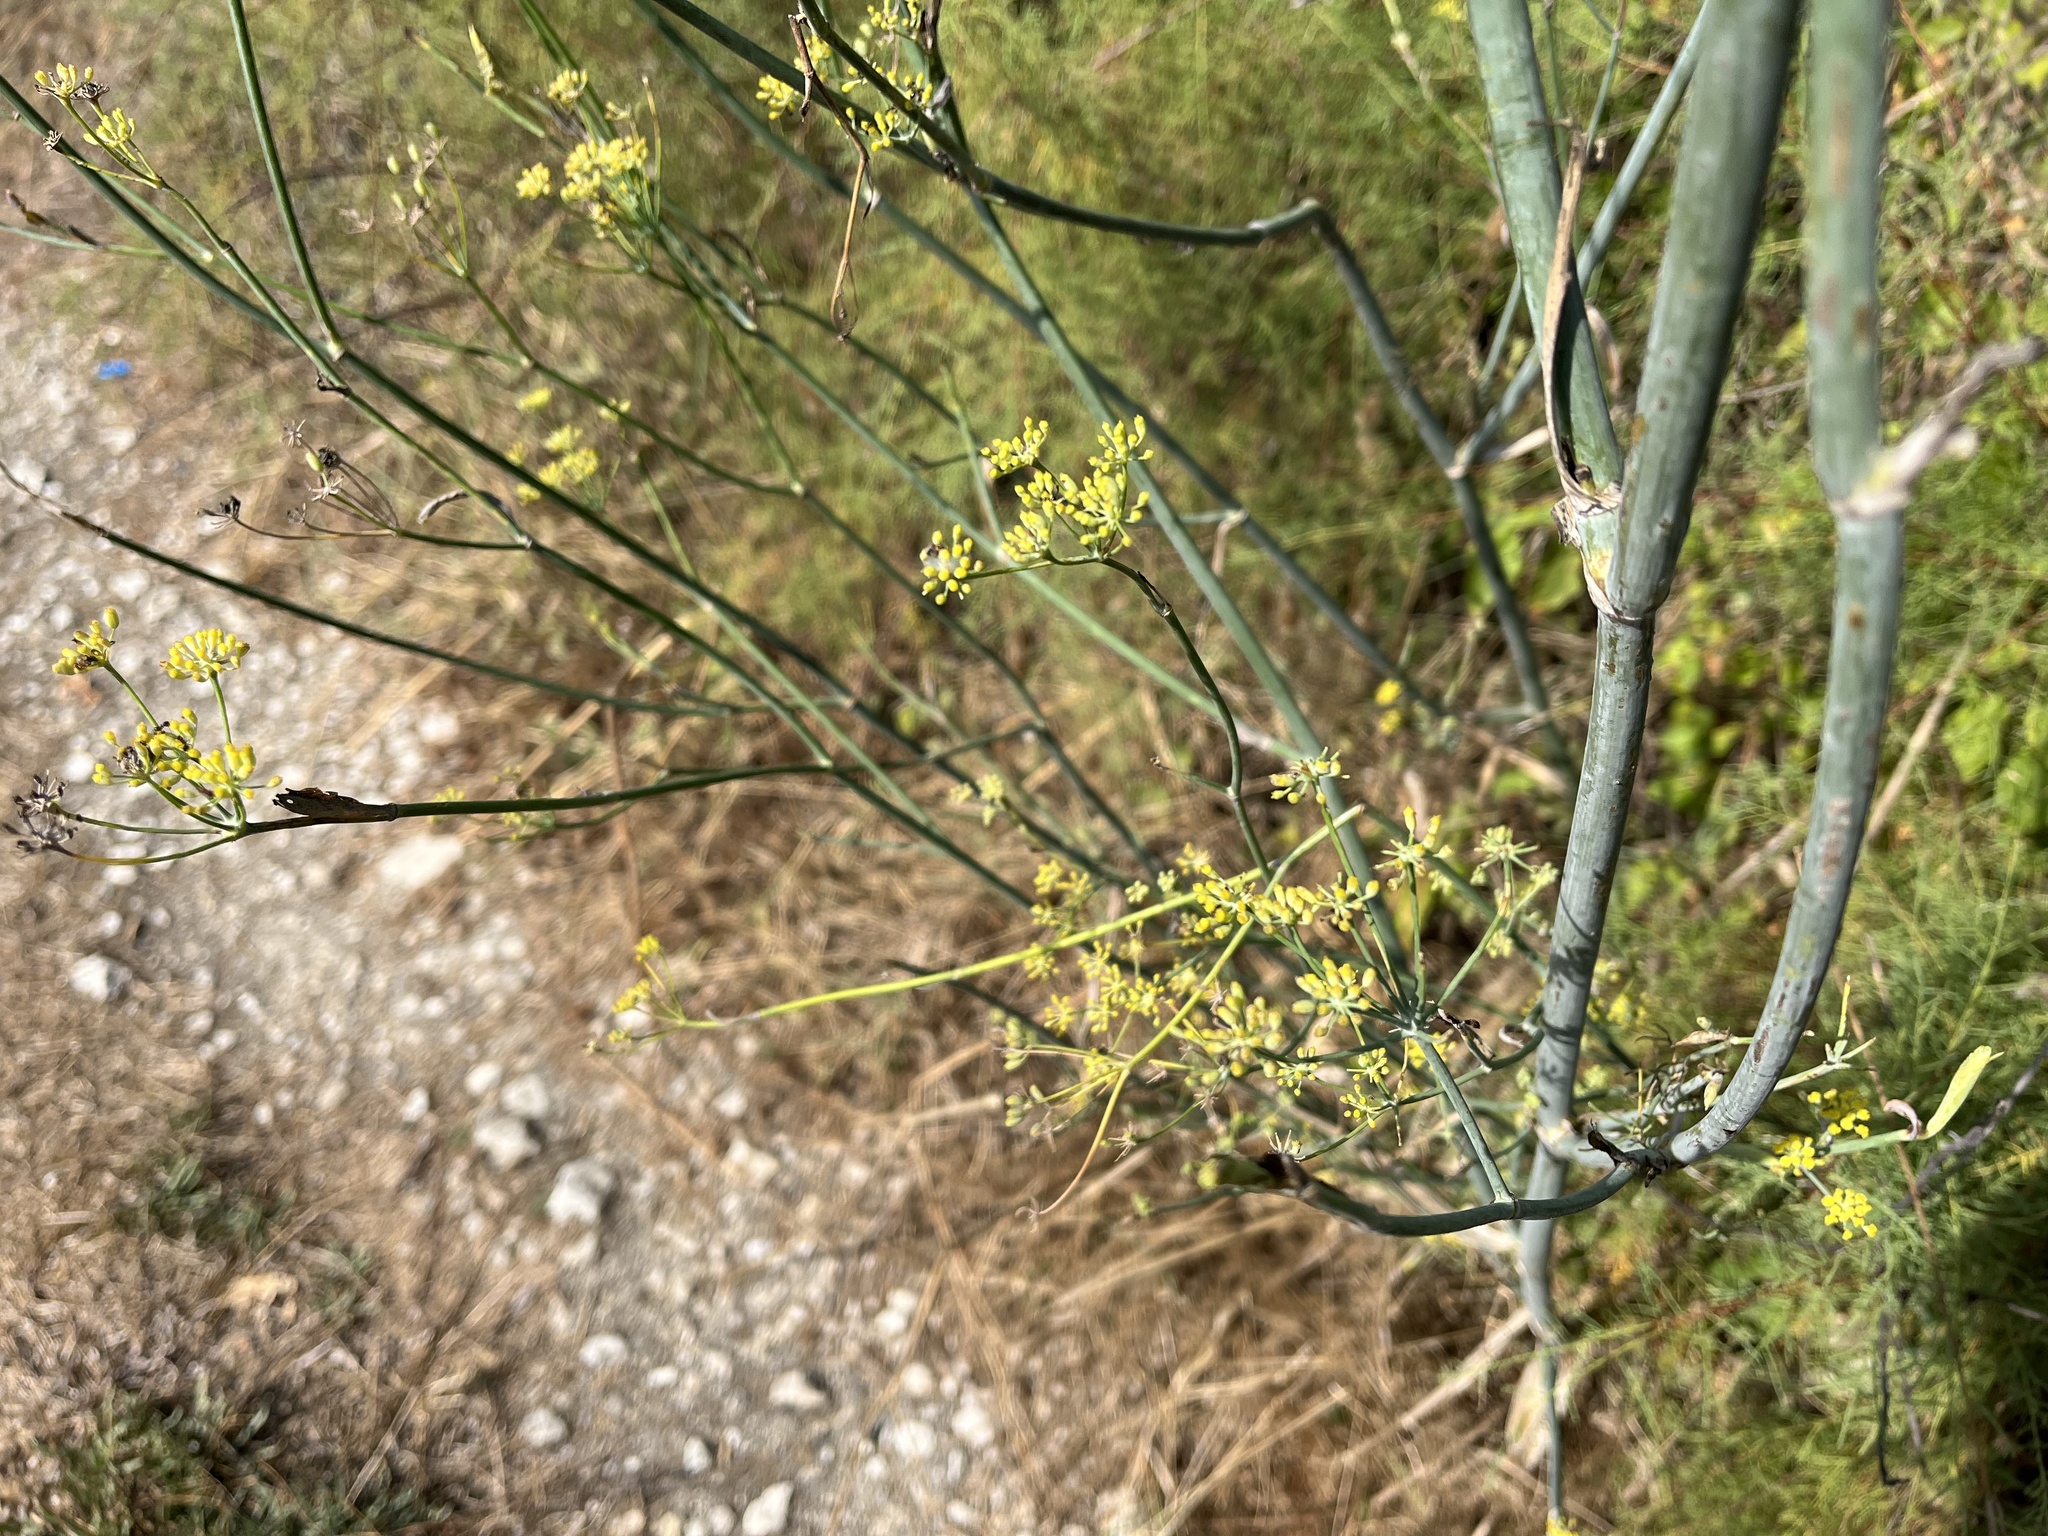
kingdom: Plantae
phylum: Tracheophyta
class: Magnoliopsida
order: Apiales
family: Apiaceae
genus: Foeniculum
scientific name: Foeniculum vulgare
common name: Fennel
